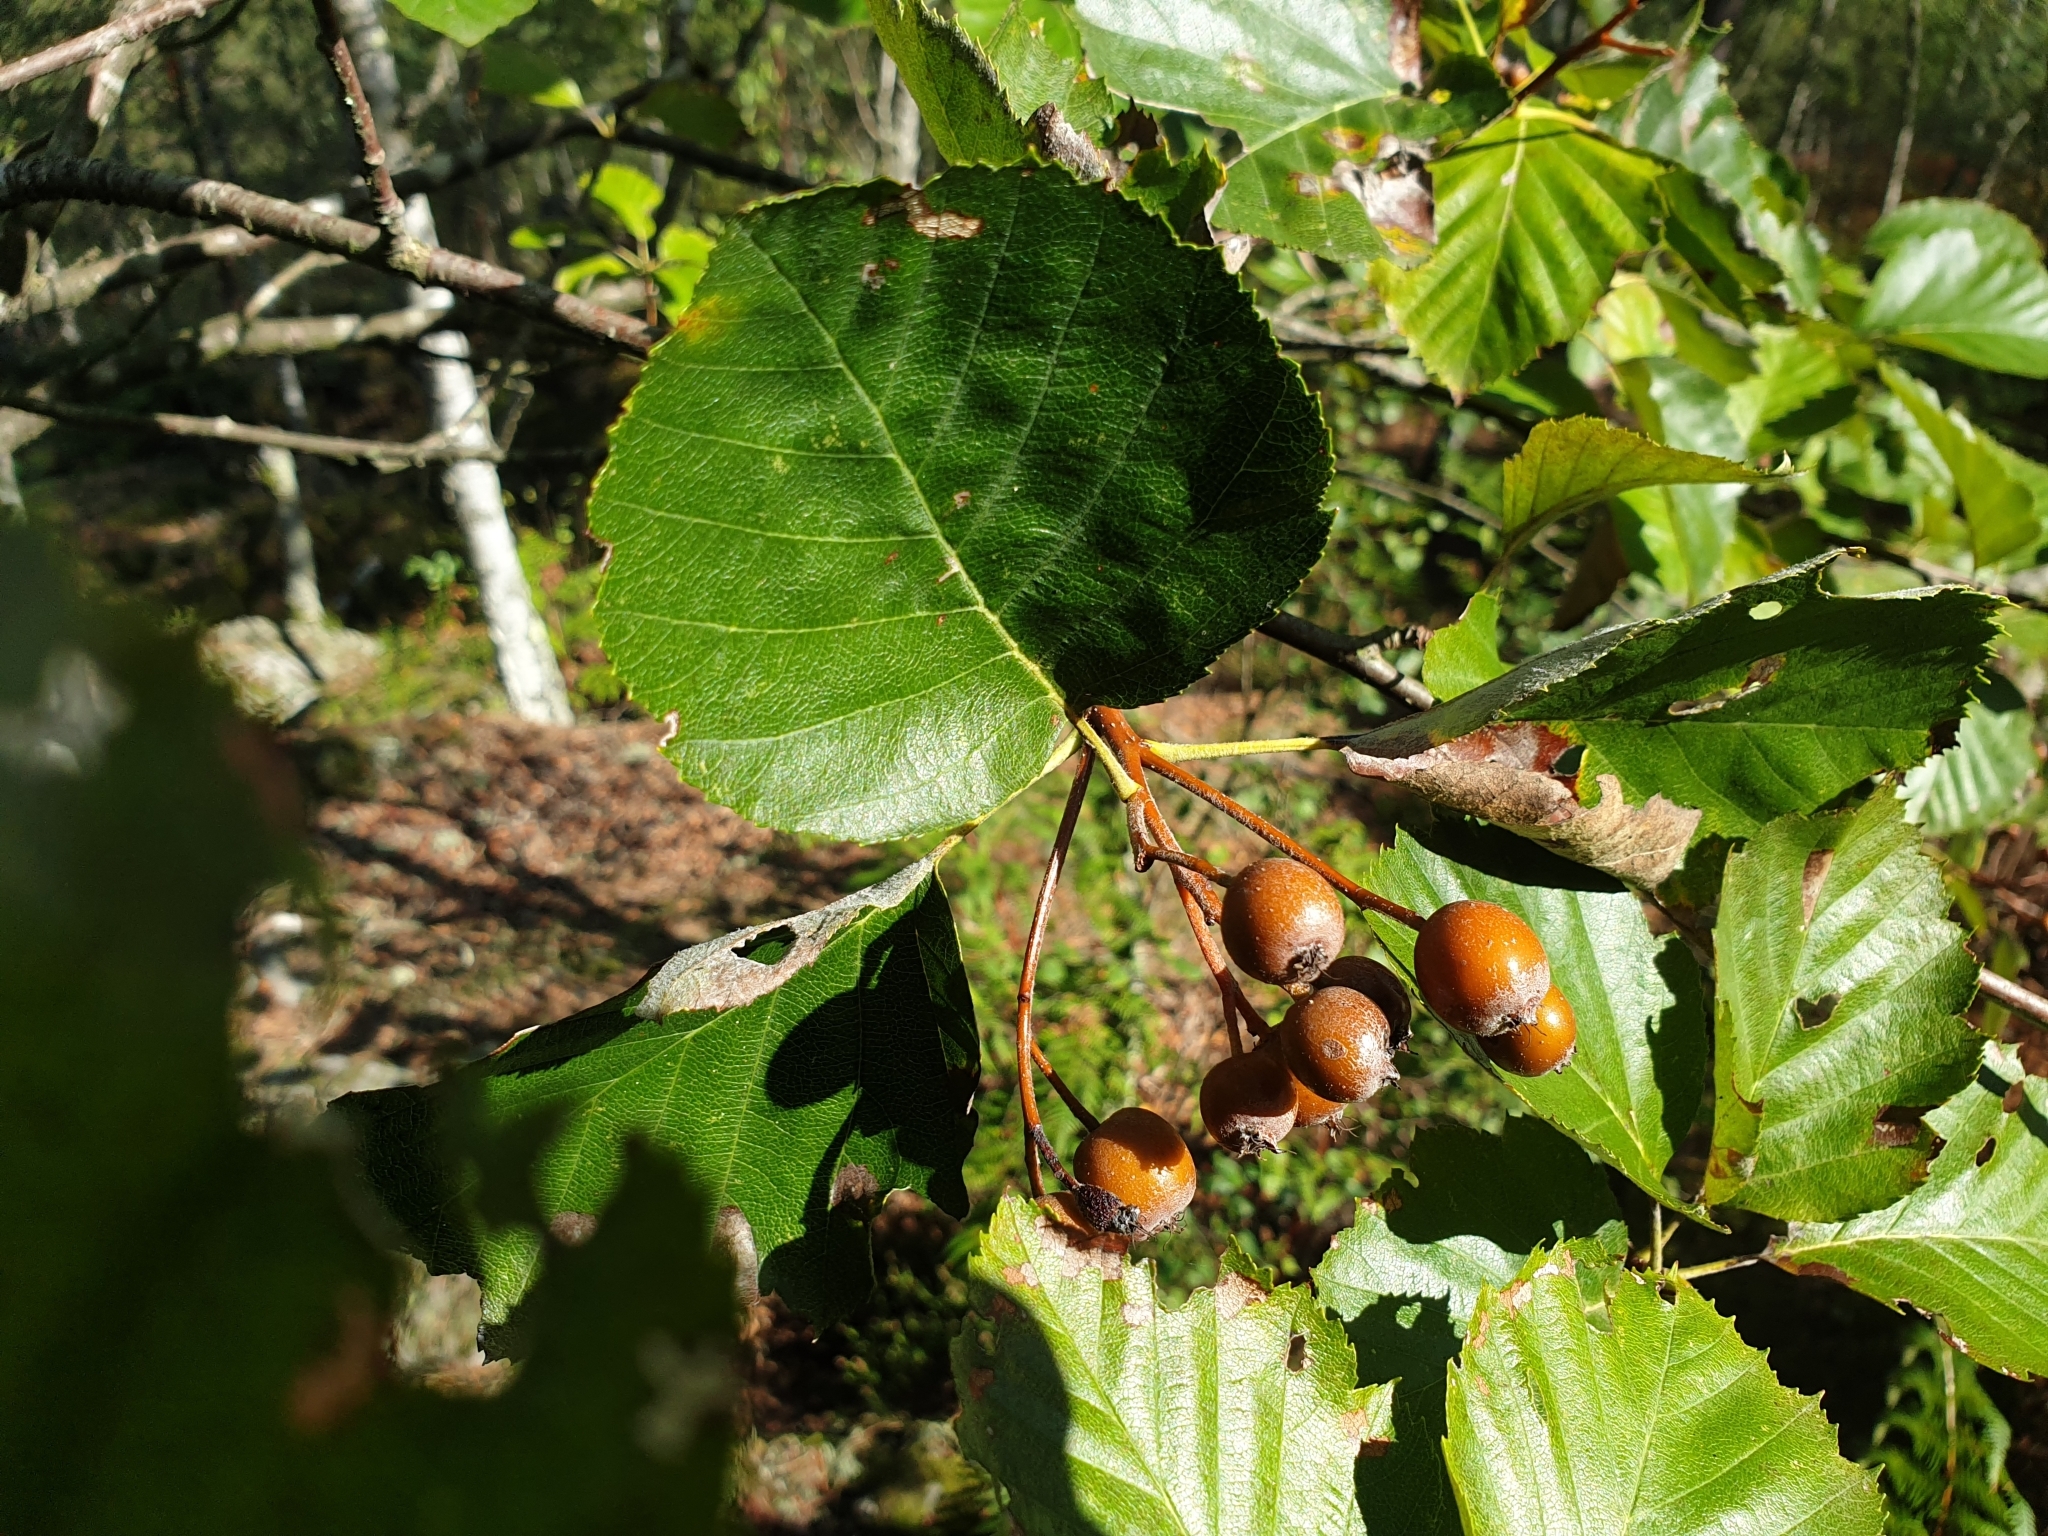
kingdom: Plantae
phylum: Tracheophyta
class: Magnoliopsida
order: Rosales
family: Rosaceae
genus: Karpatiosorbus
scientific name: Karpatiosorbus latifolia
